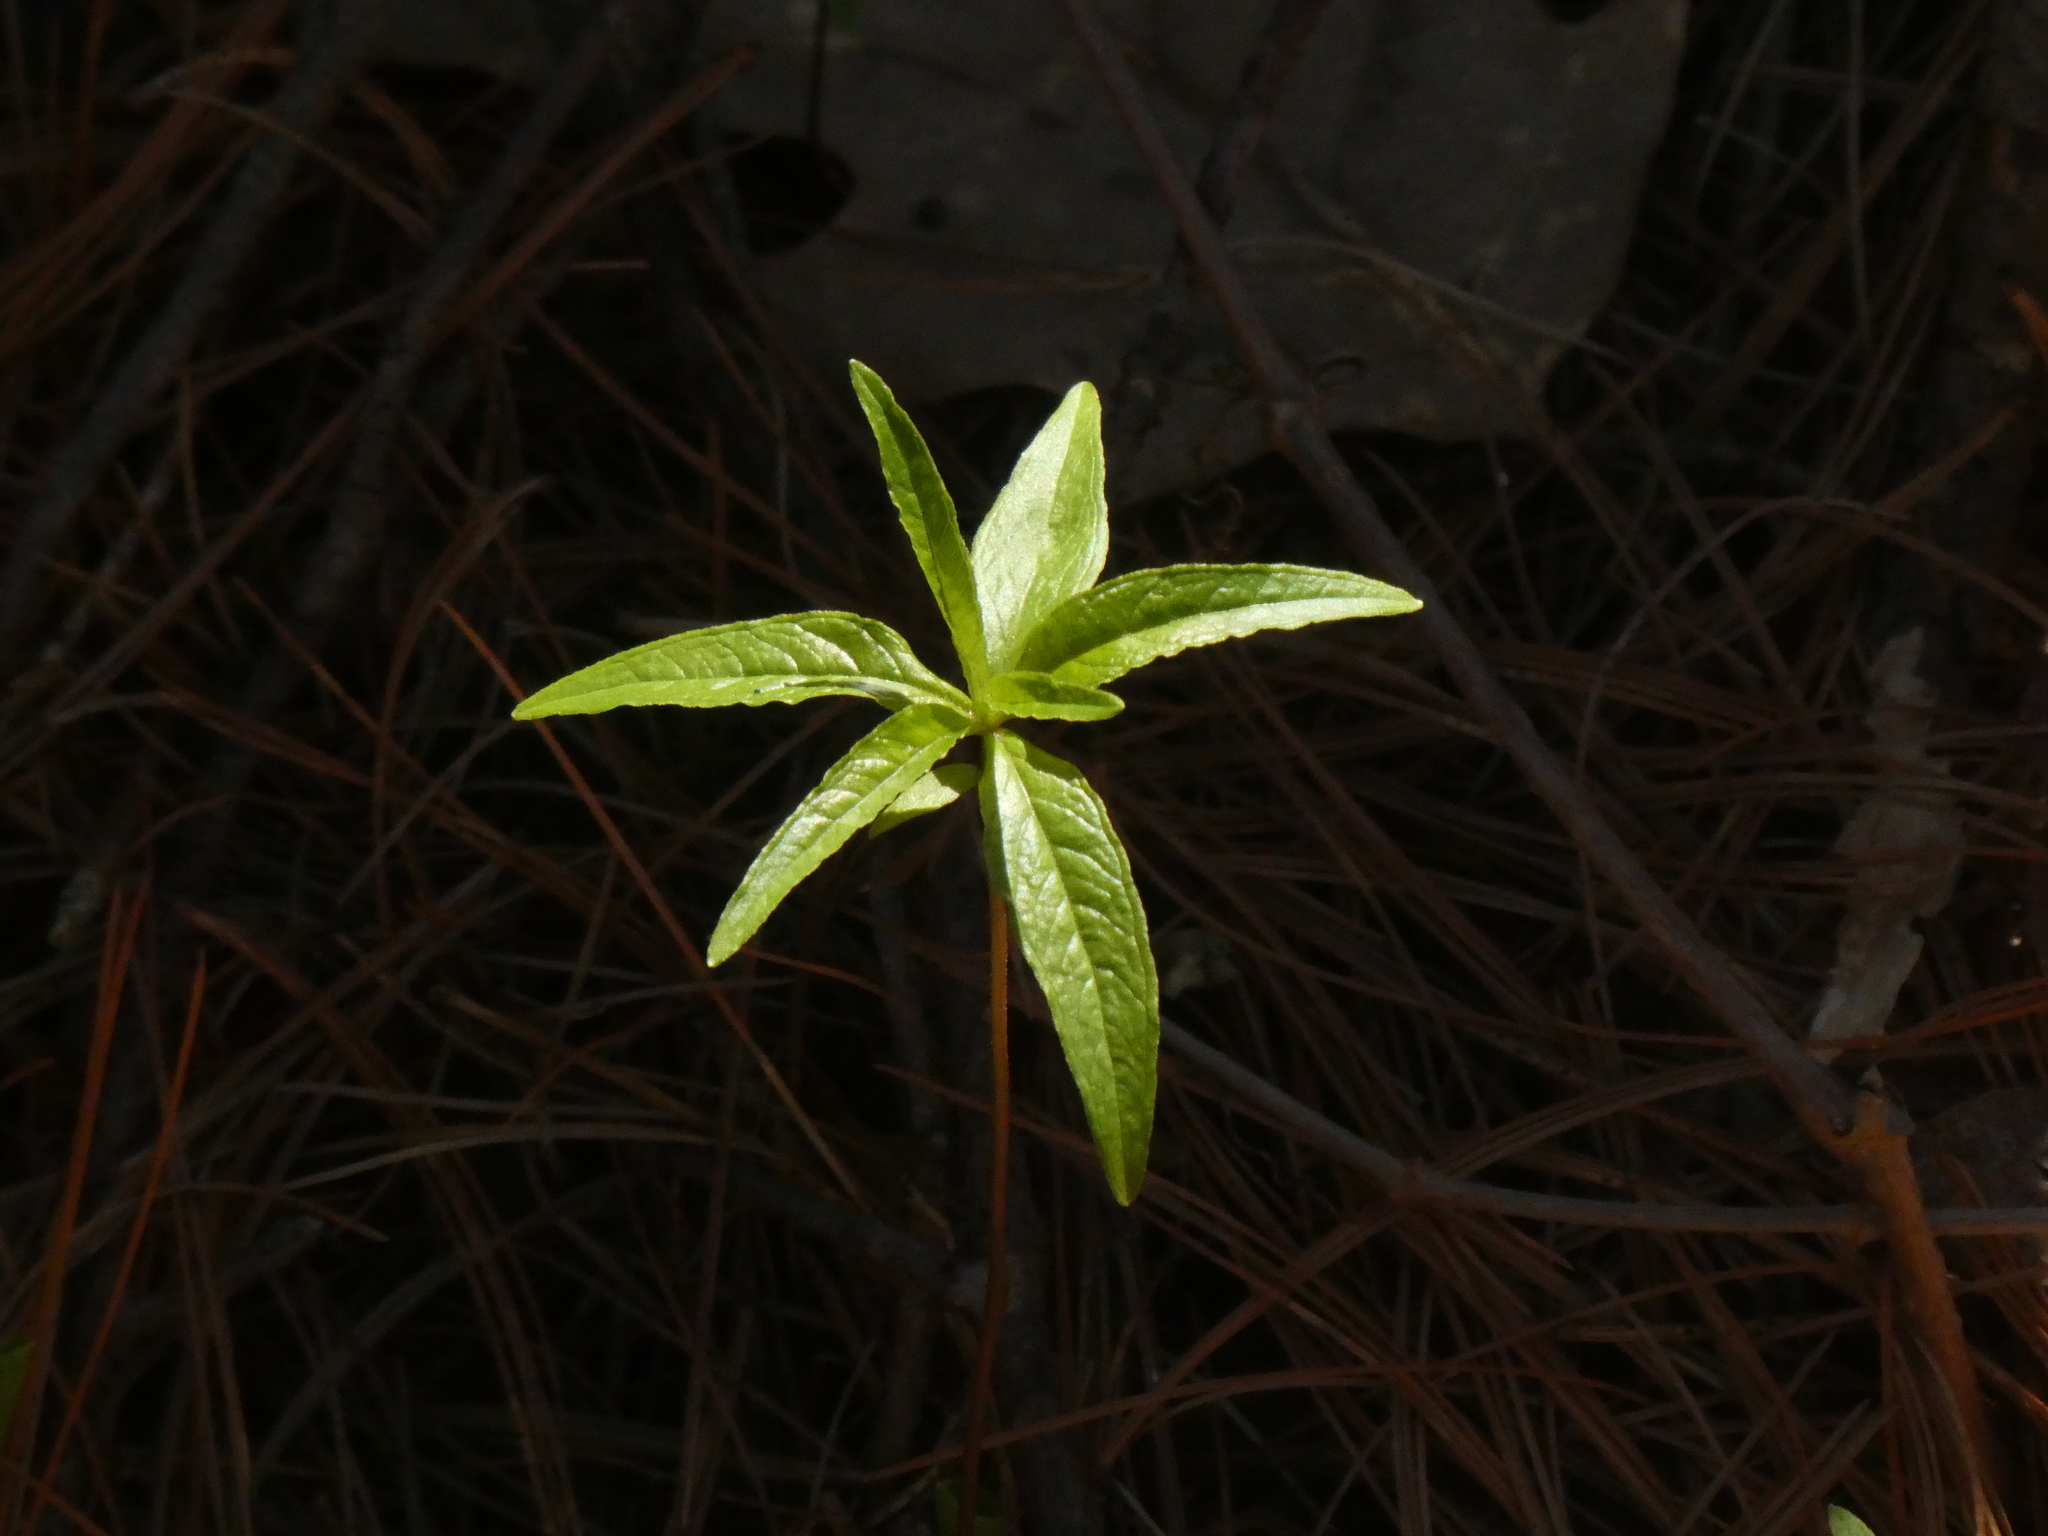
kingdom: Plantae
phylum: Tracheophyta
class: Magnoliopsida
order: Ericales
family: Primulaceae
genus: Lysimachia
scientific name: Lysimachia borealis
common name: American starflower
